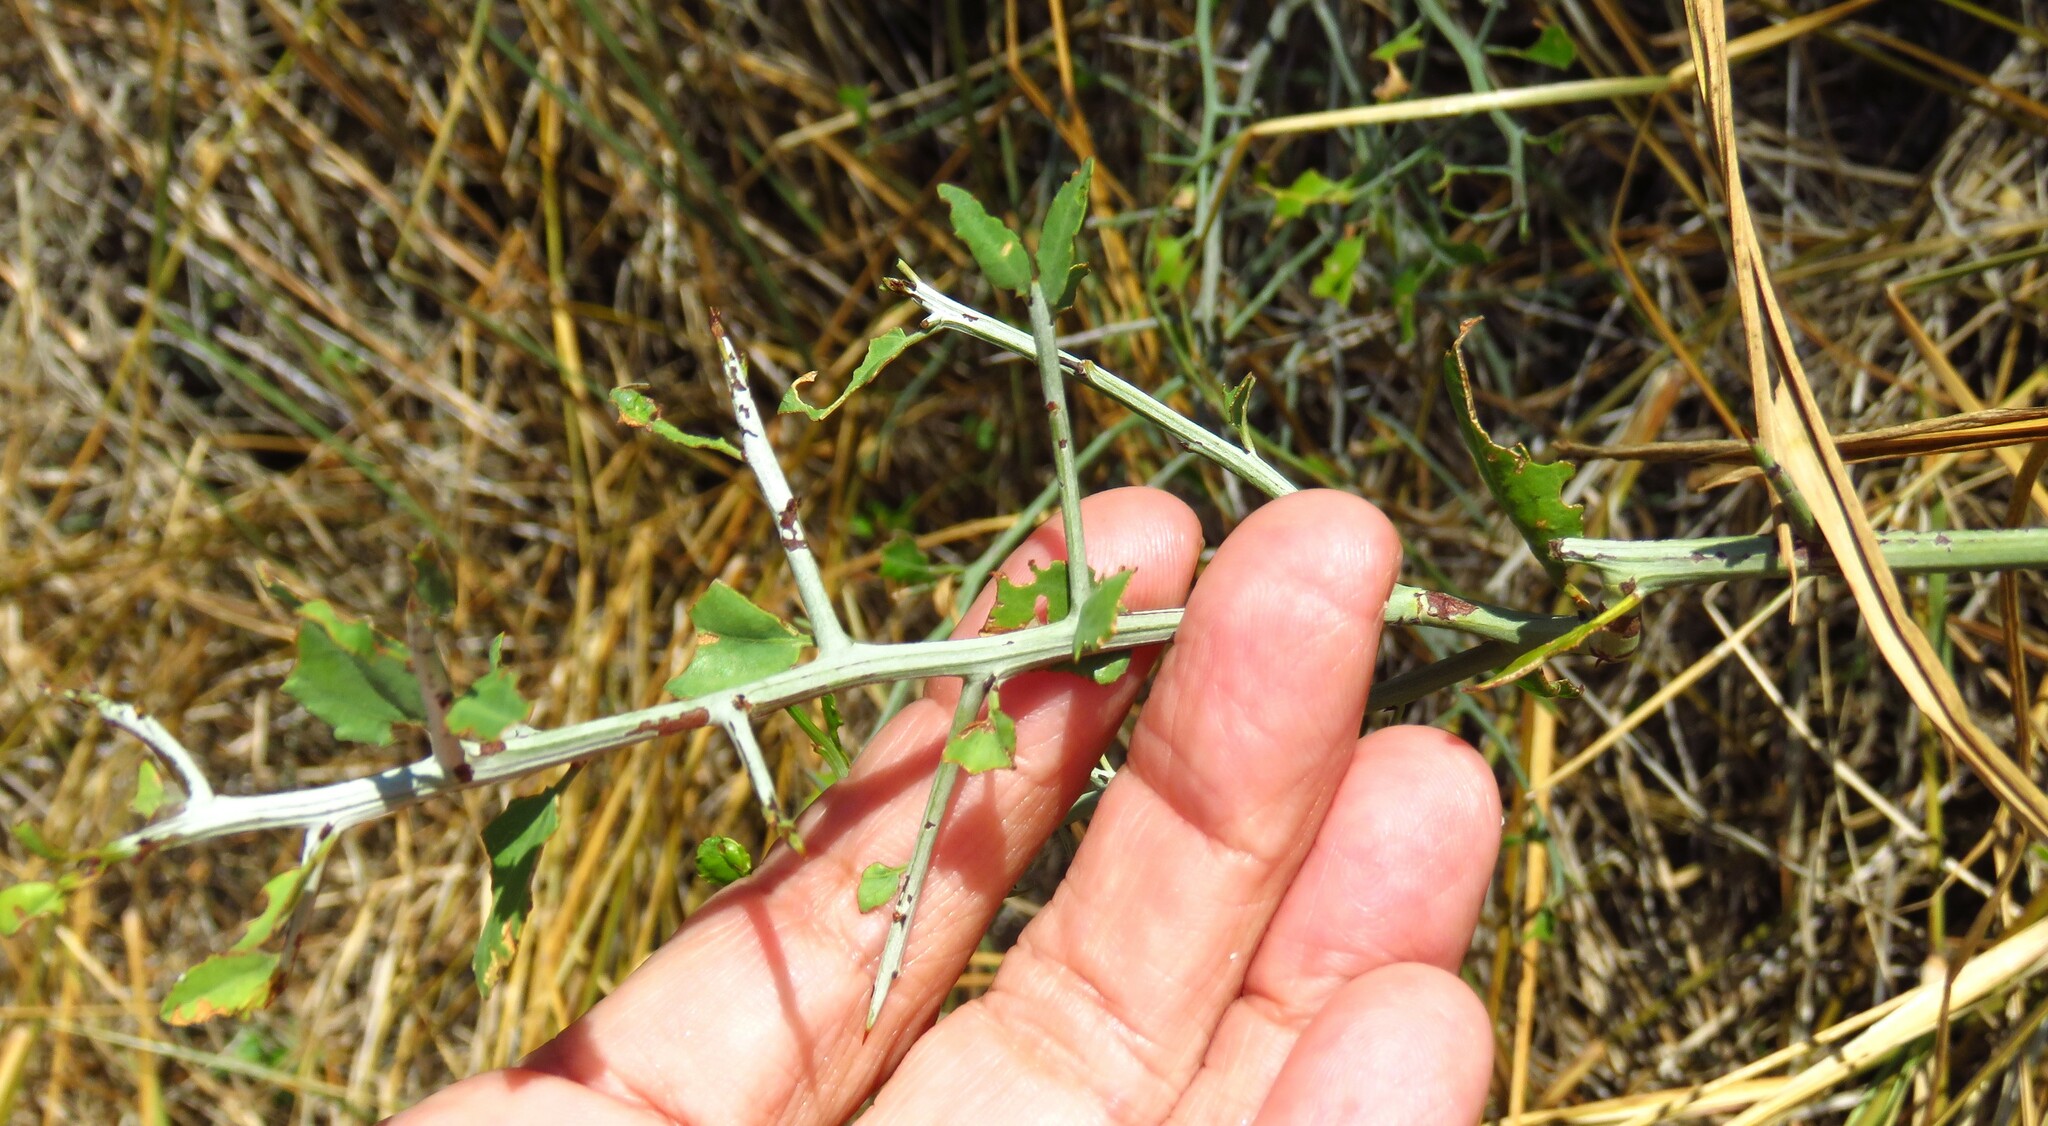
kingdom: Plantae
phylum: Tracheophyta
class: Magnoliopsida
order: Rosales
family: Rhamnaceae
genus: Sarcomphalus
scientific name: Sarcomphalus obtusifolius
